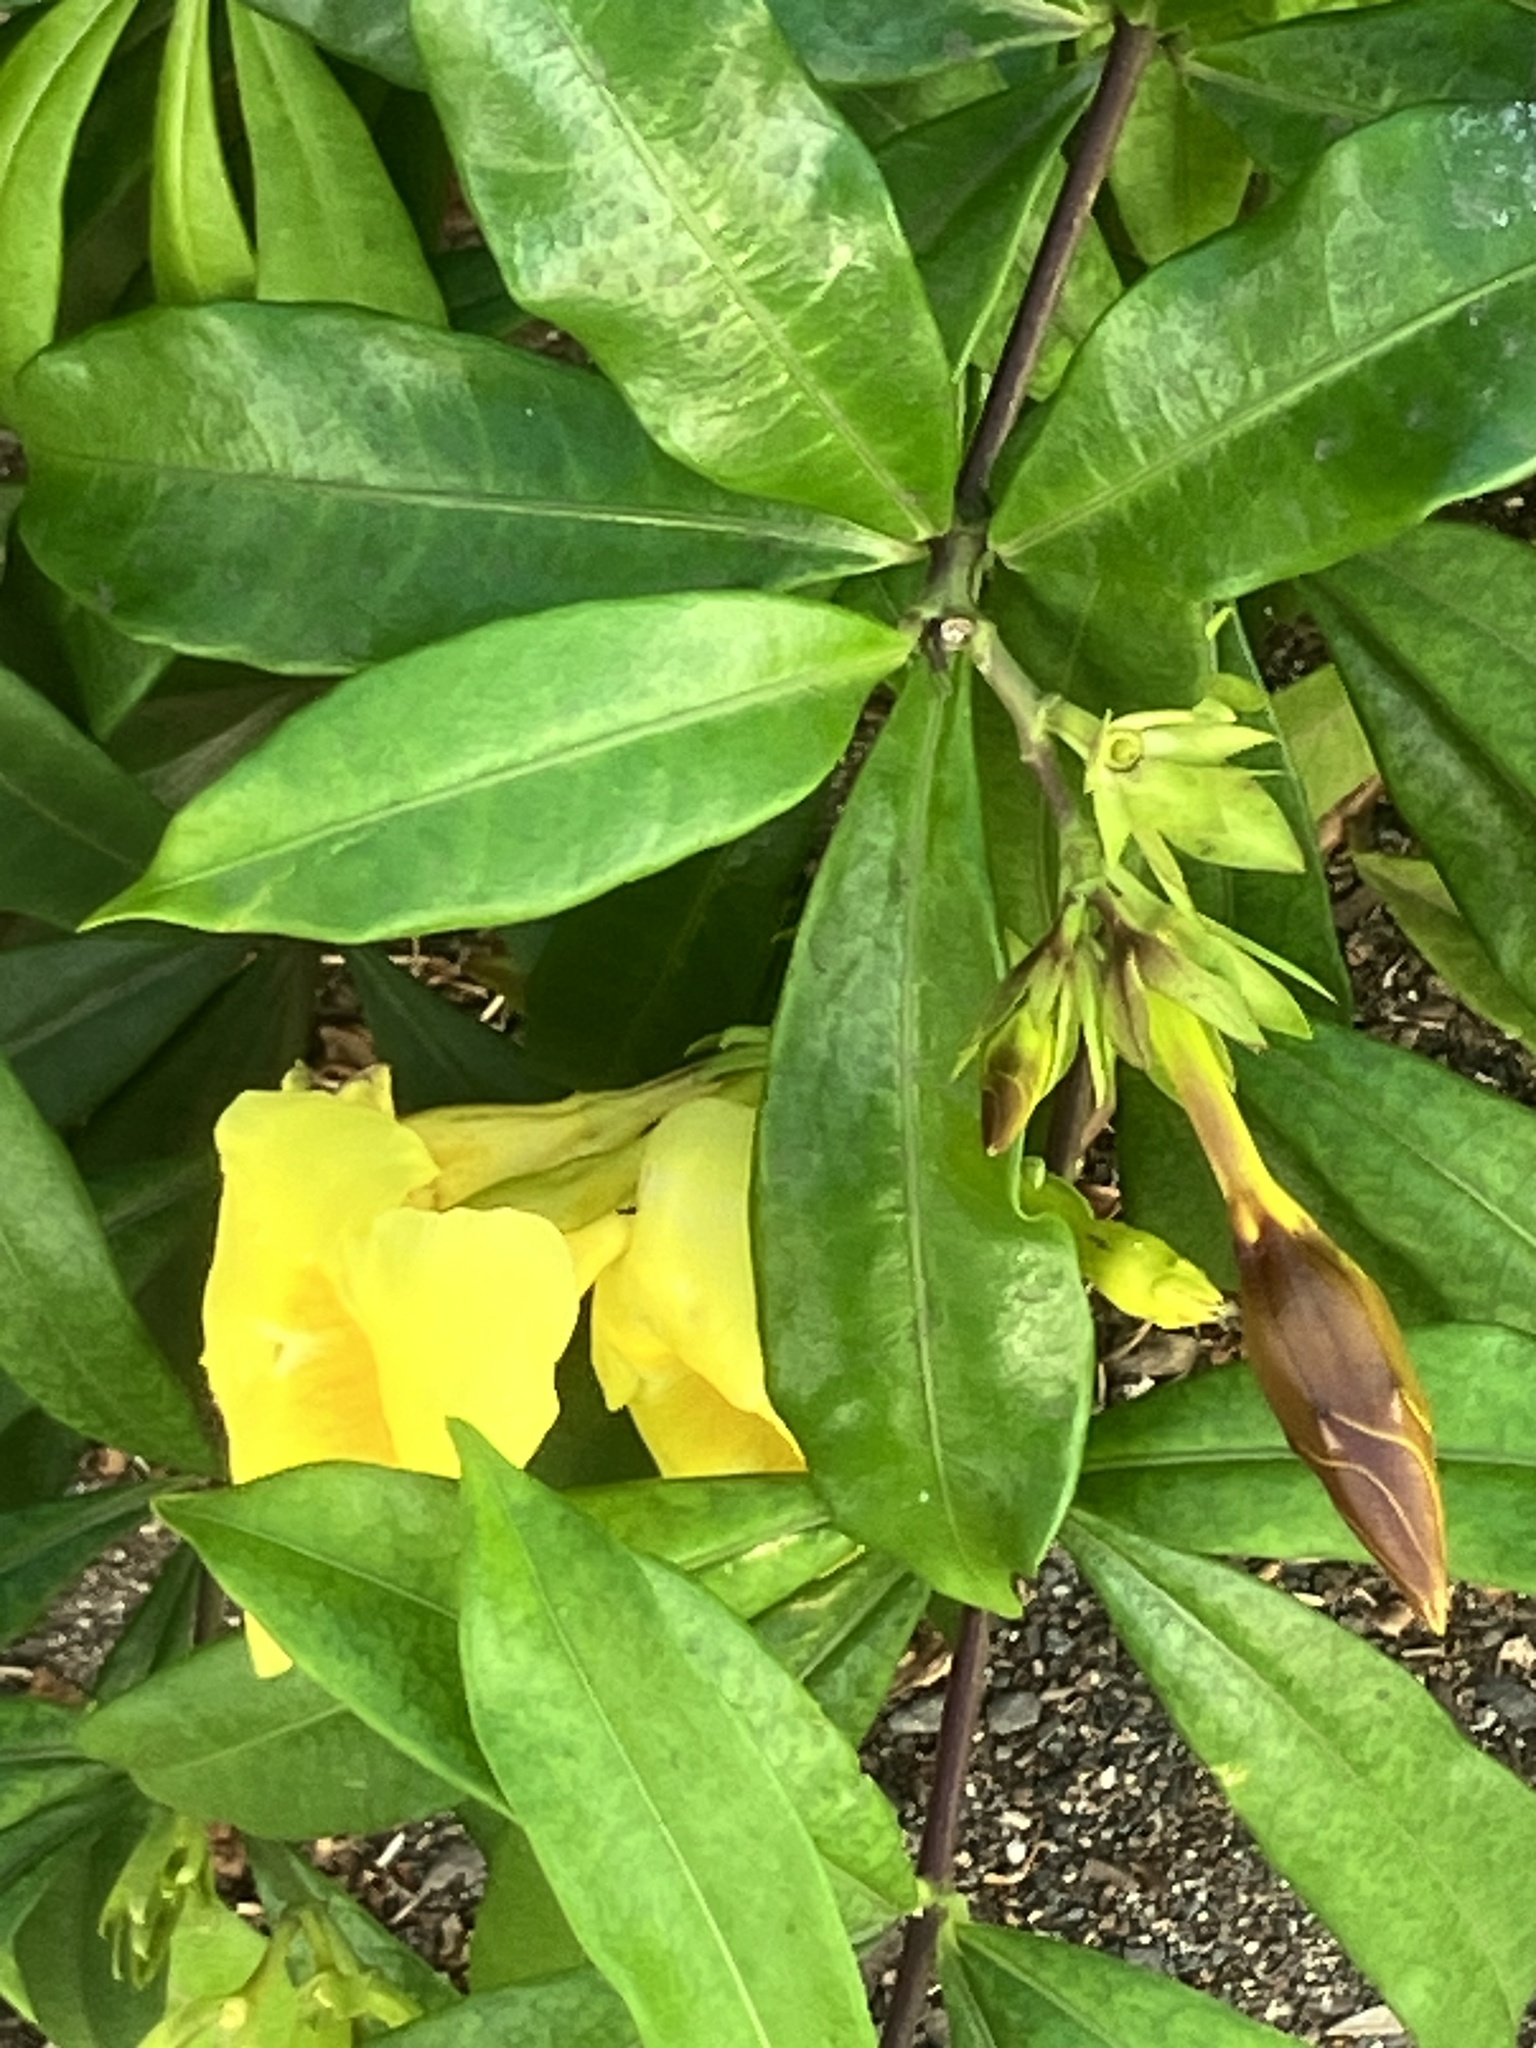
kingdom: Plantae
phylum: Tracheophyta
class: Magnoliopsida
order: Gentianales
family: Apocynaceae
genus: Allamanda
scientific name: Allamanda cathartica
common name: Golden trumpet
